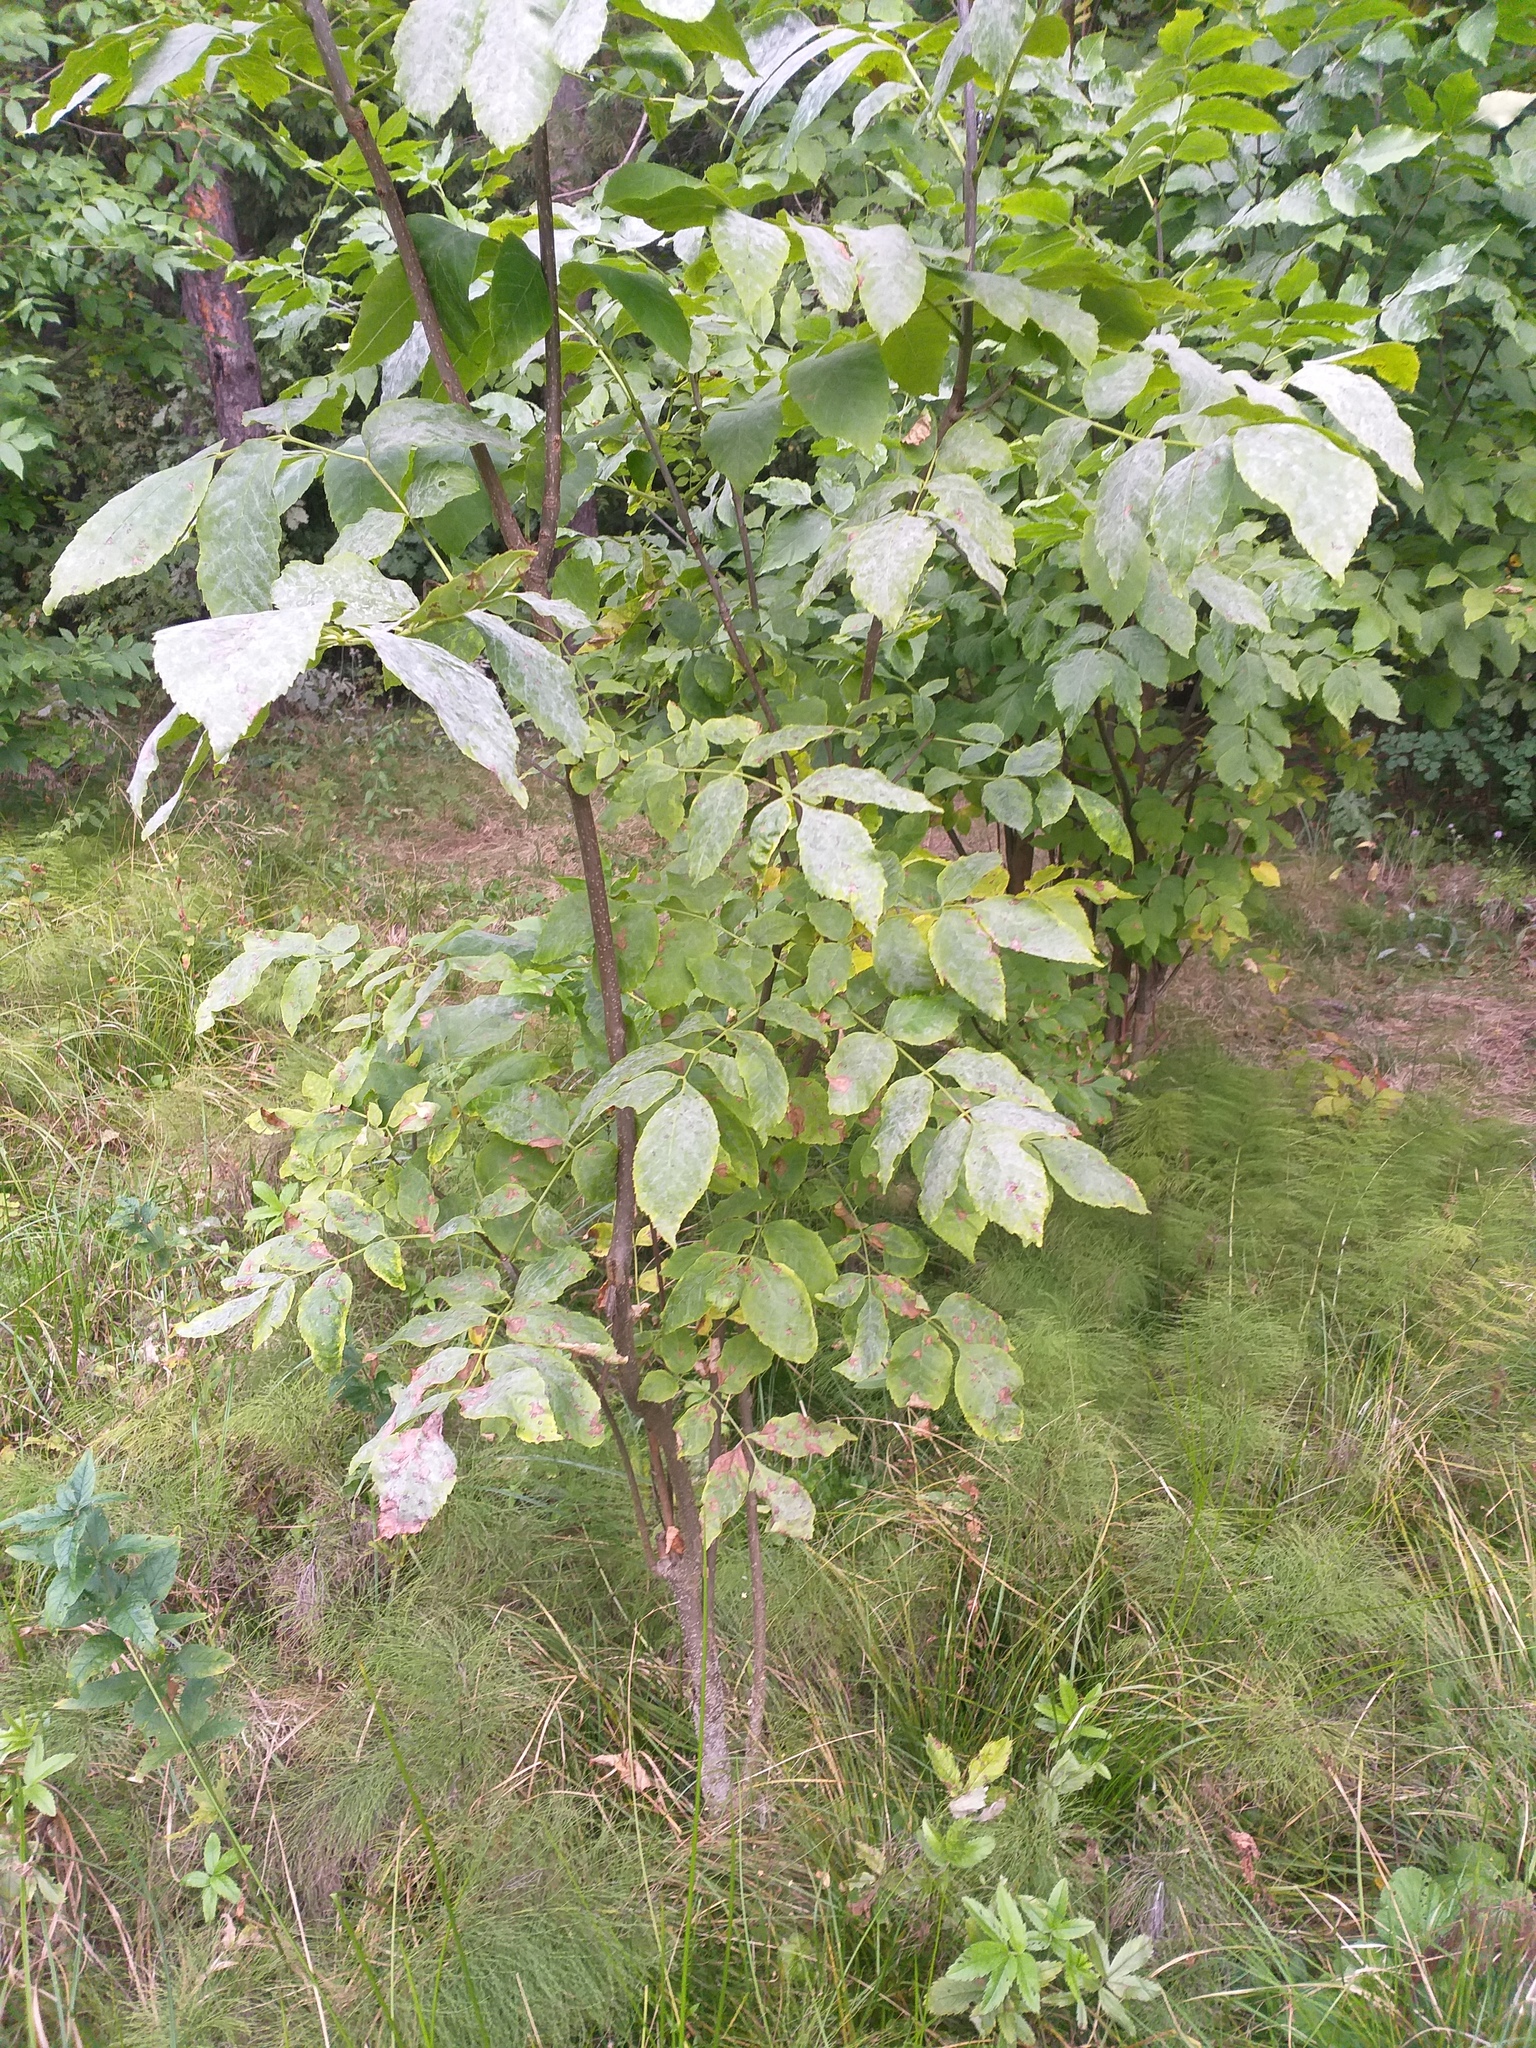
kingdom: Plantae
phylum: Tracheophyta
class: Magnoliopsida
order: Lamiales
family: Oleaceae
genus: Fraxinus
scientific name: Fraxinus pennsylvanica
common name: Green ash
